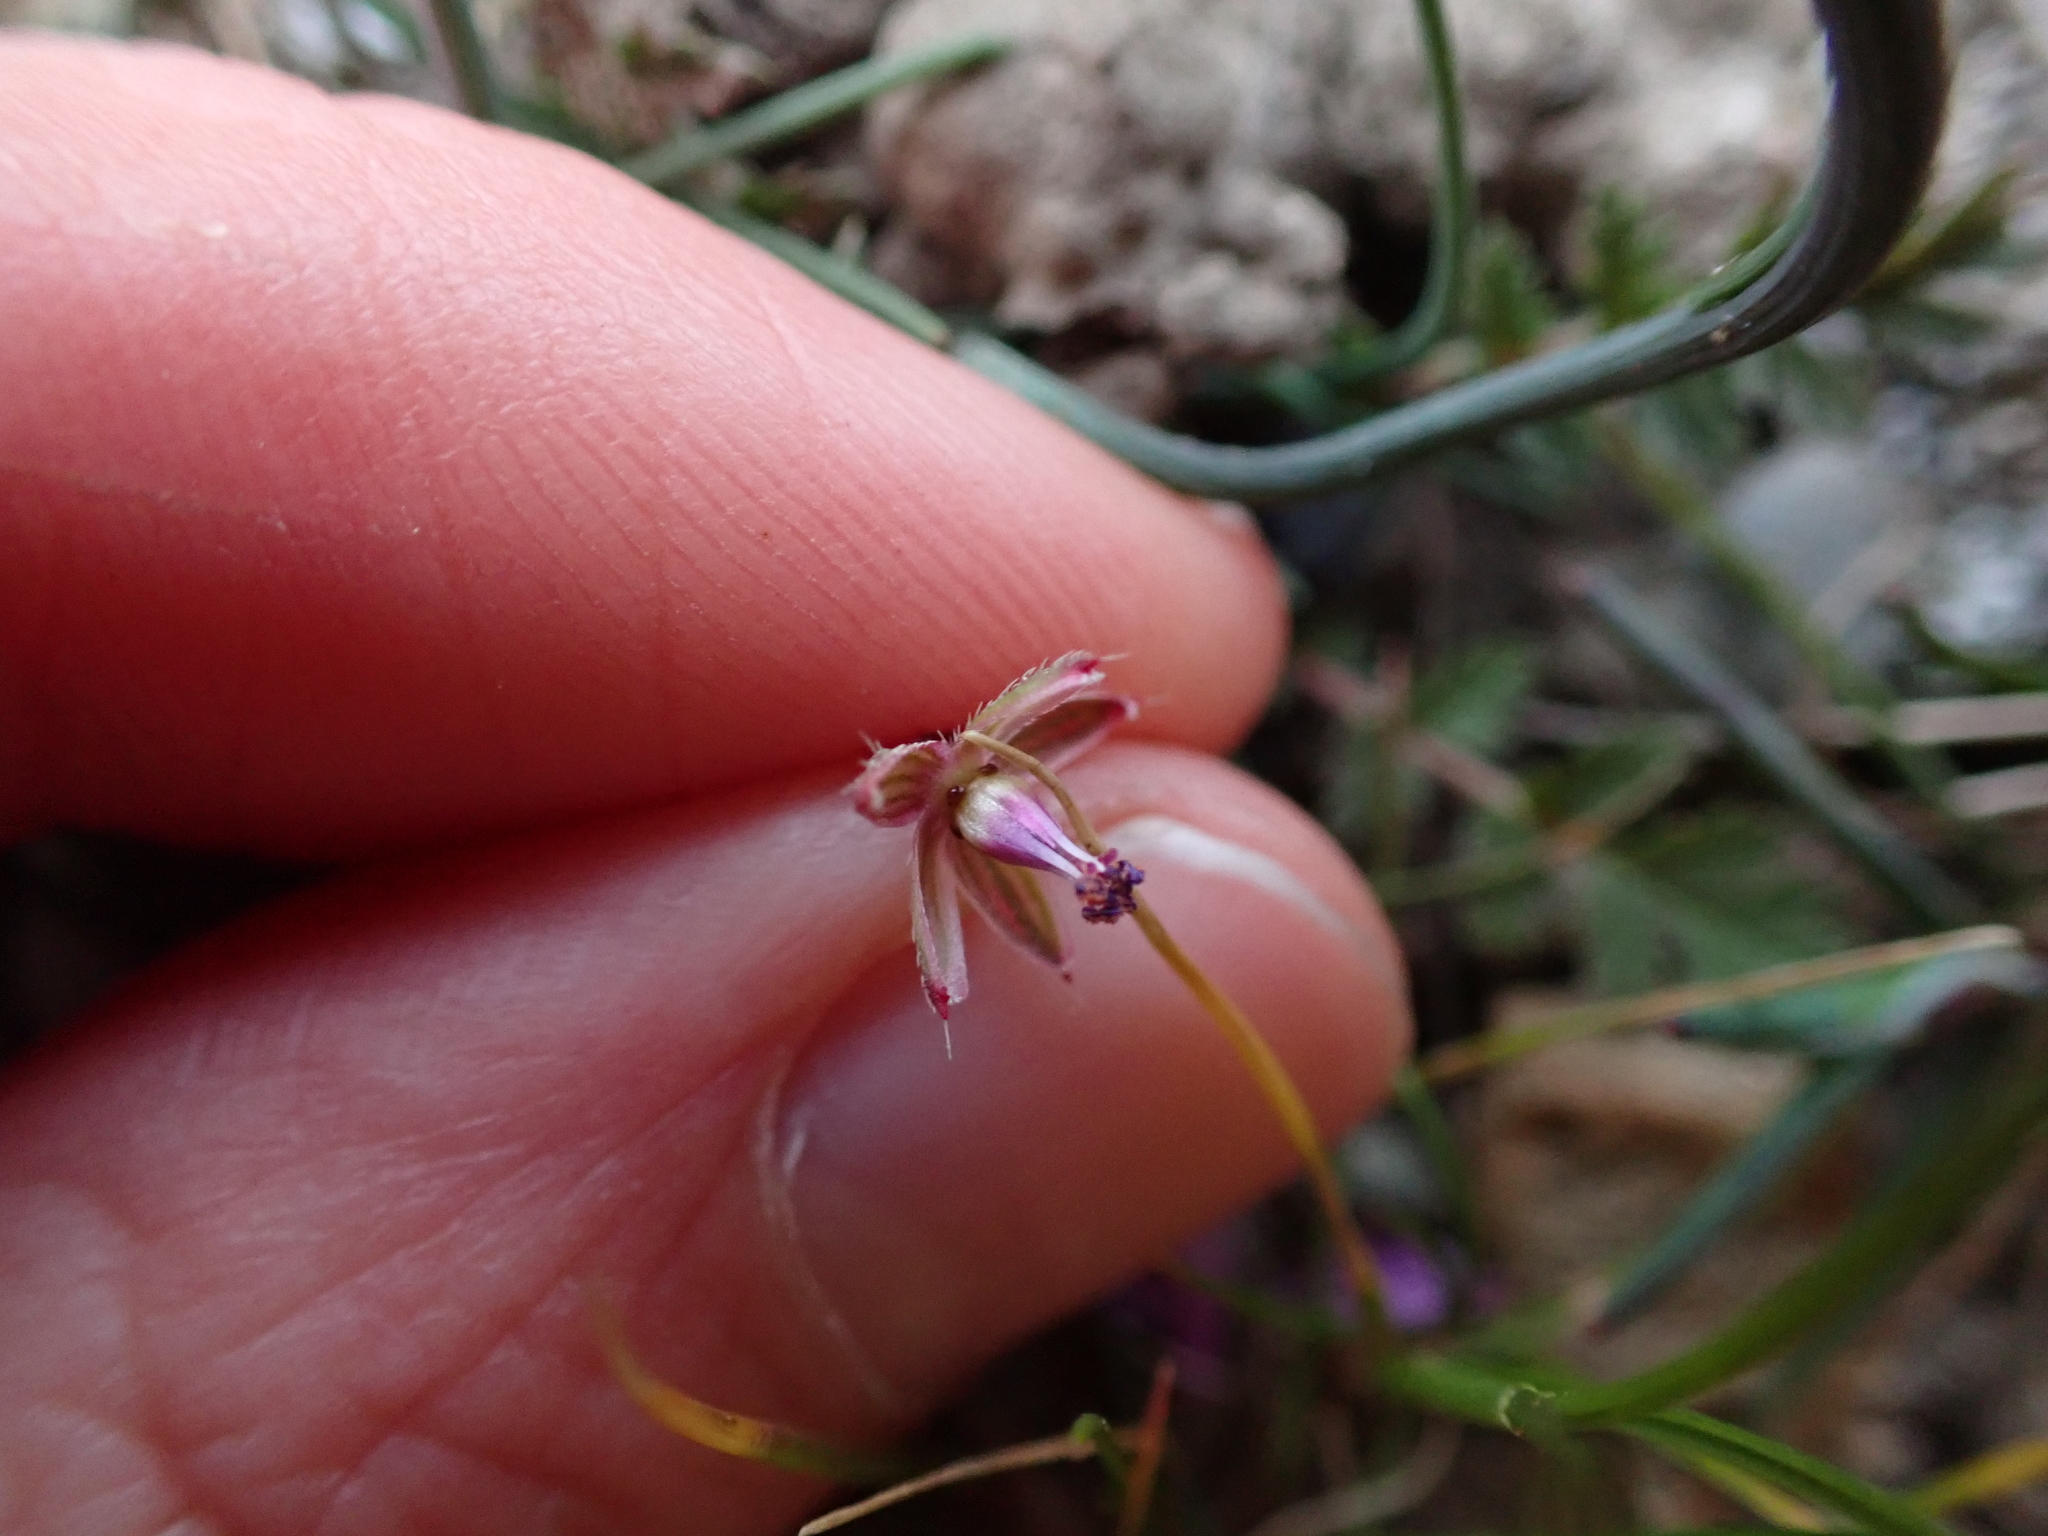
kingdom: Plantae
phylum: Tracheophyta
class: Magnoliopsida
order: Geraniales
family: Geraniaceae
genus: Erodium
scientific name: Erodium cicutarium
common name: Common stork's-bill
